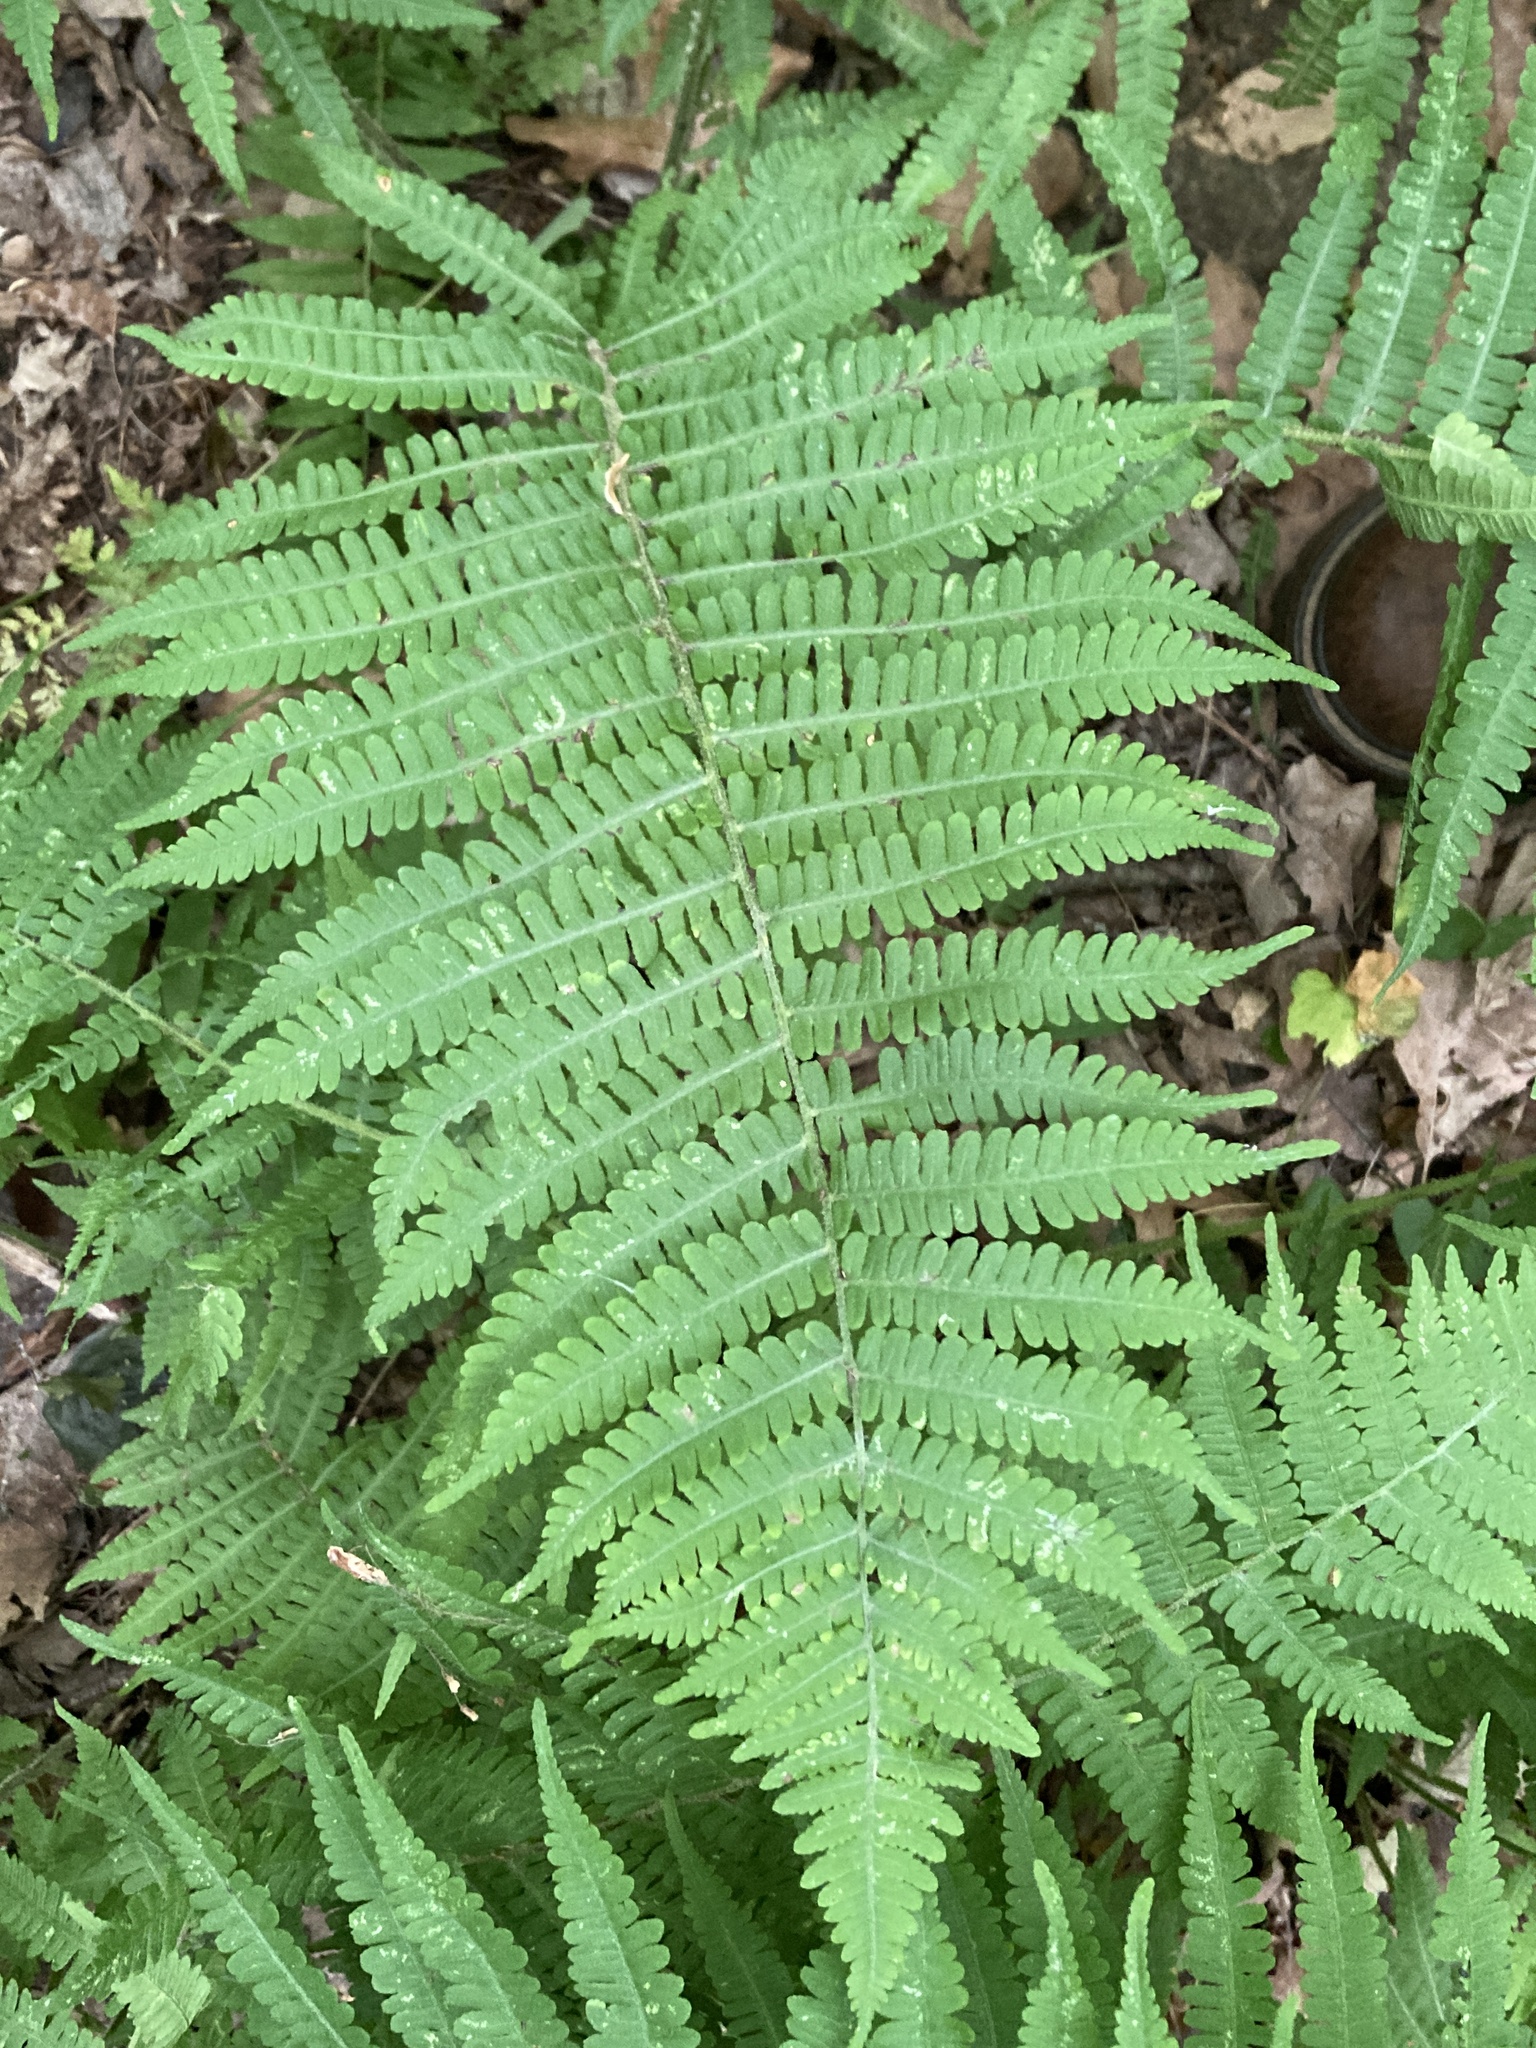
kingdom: Plantae
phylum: Tracheophyta
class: Polypodiopsida
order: Polypodiales
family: Athyriaceae
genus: Deparia
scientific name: Deparia acrostichoides
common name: Silver false spleenwort
